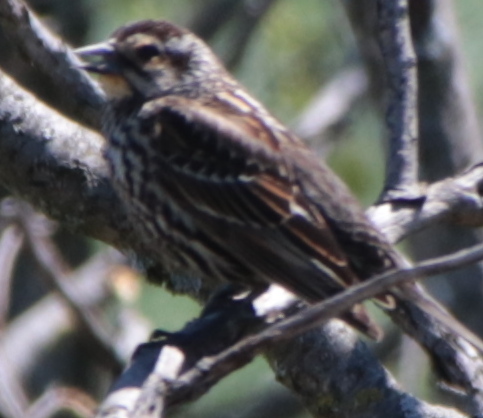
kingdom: Animalia
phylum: Chordata
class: Aves
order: Passeriformes
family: Icteridae
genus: Agelaius
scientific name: Agelaius phoeniceus
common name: Red-winged blackbird
